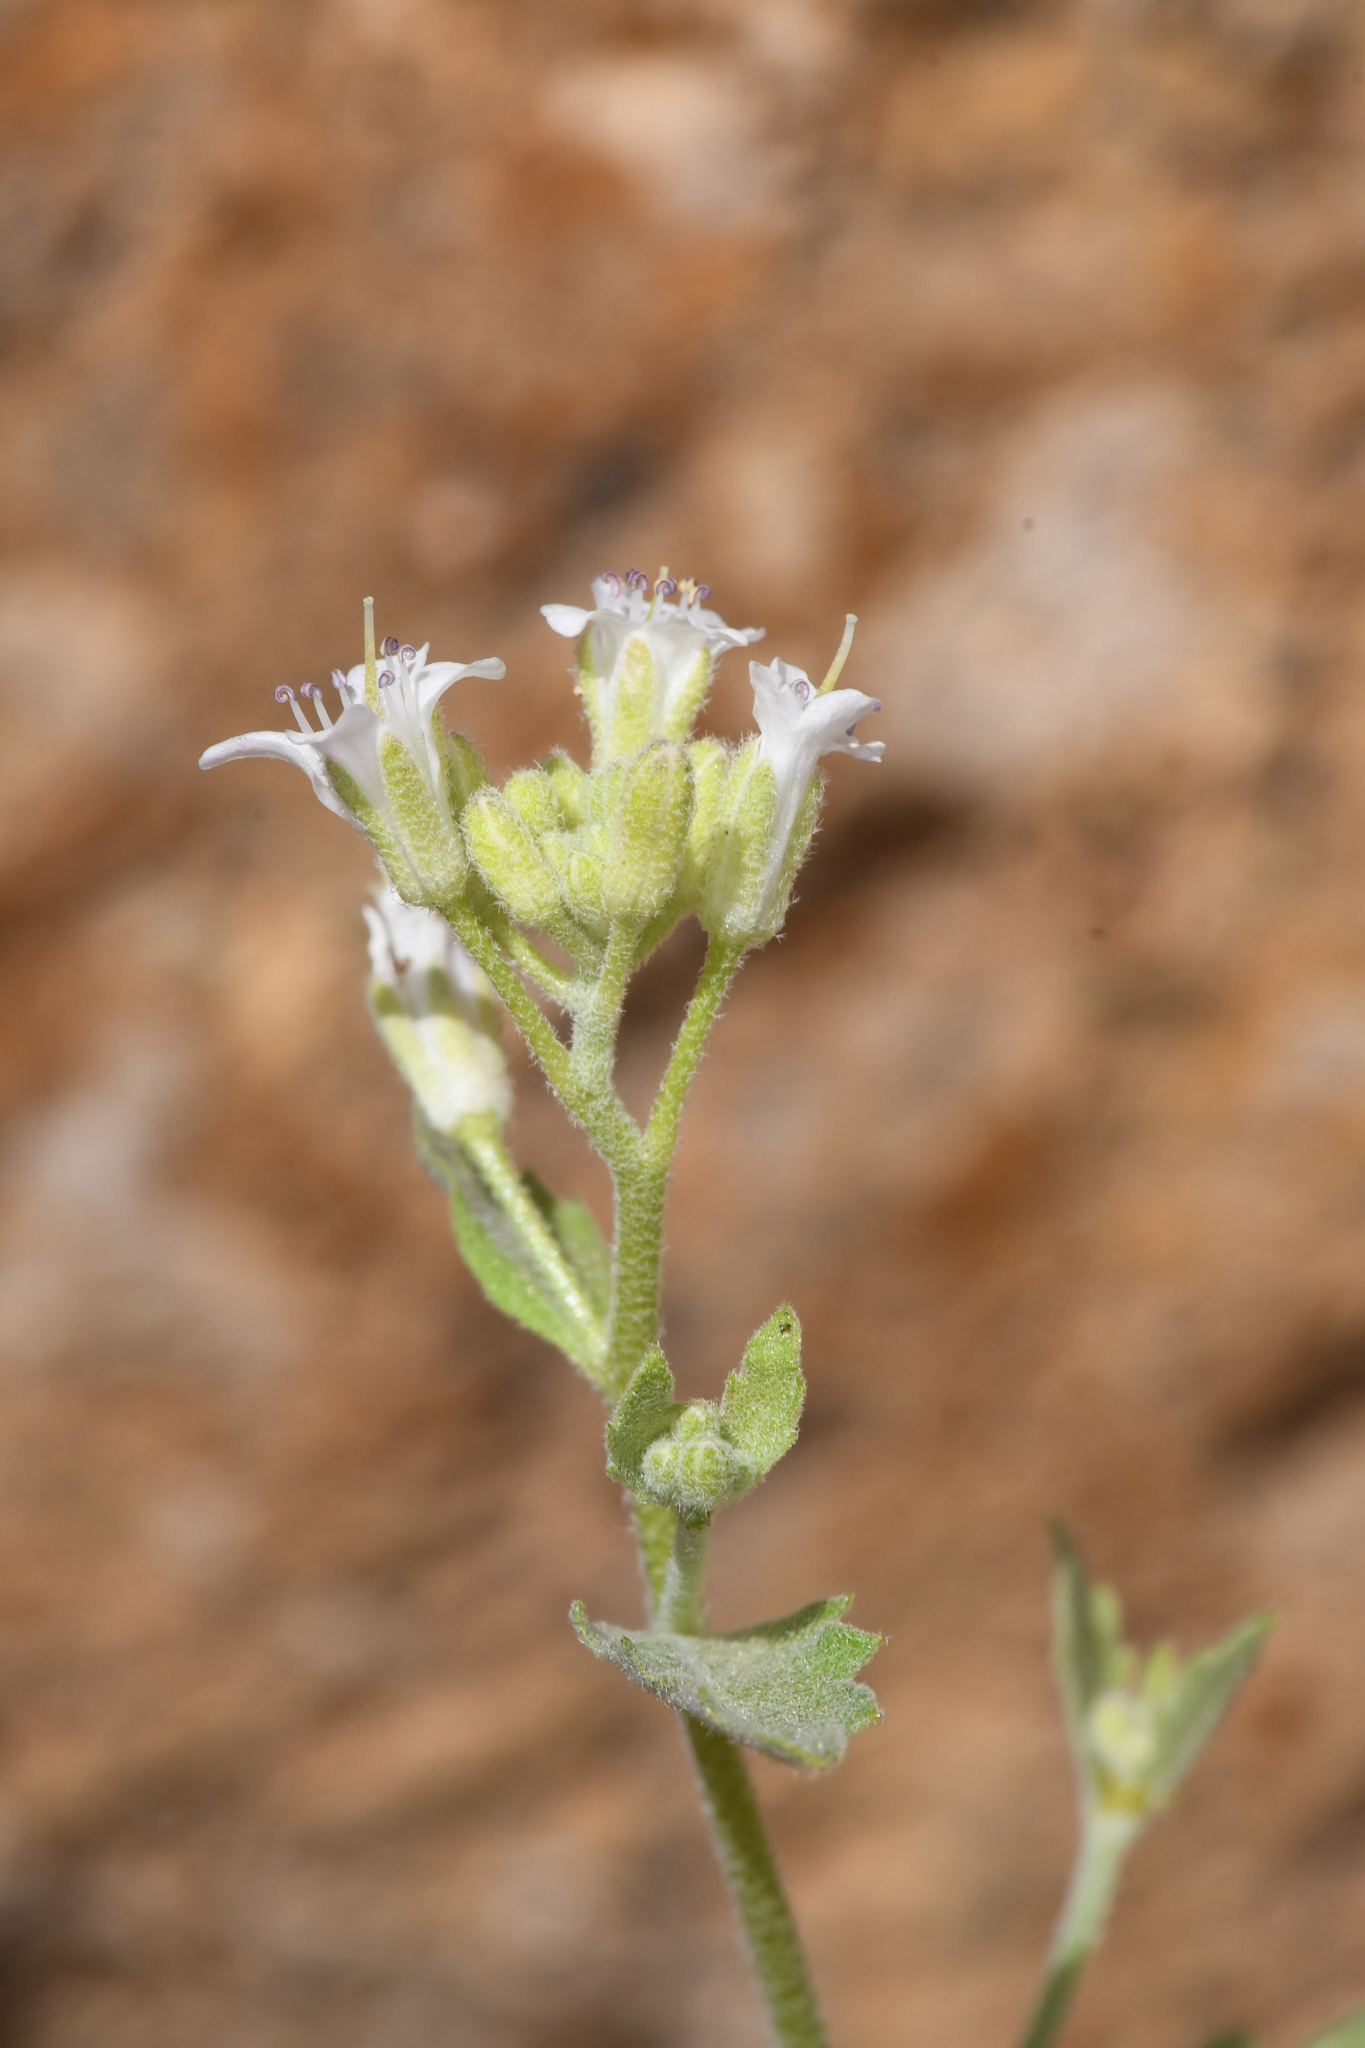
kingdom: Plantae
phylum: Tracheophyta
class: Magnoliopsida
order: Brassicales
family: Brassicaceae
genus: Halimolobos
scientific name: Halimolobos jaegeri
